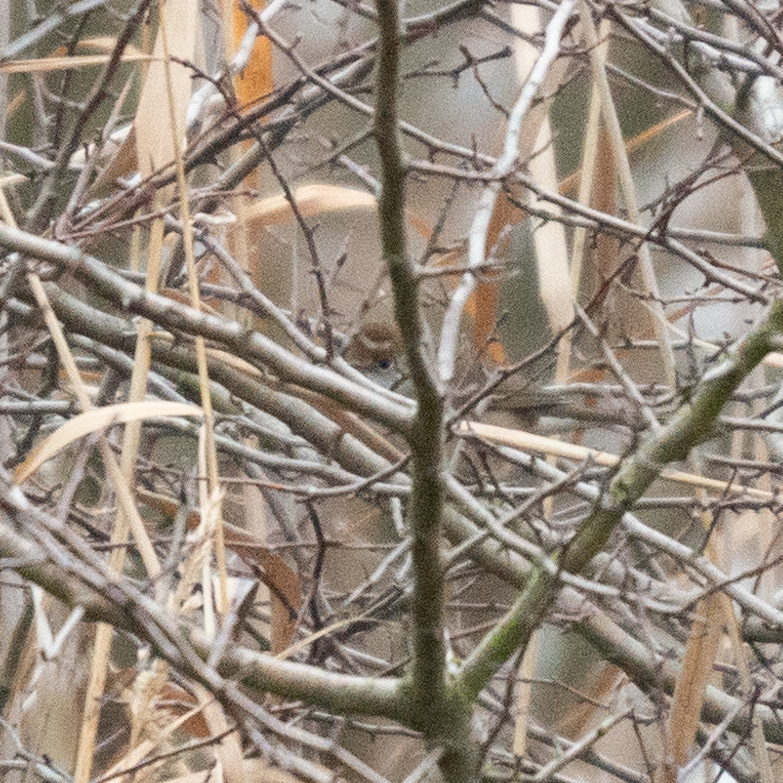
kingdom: Animalia
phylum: Chordata
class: Aves
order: Passeriformes
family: Sylviidae
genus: Sylvia
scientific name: Sylvia atricapilla
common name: Eurasian blackcap
